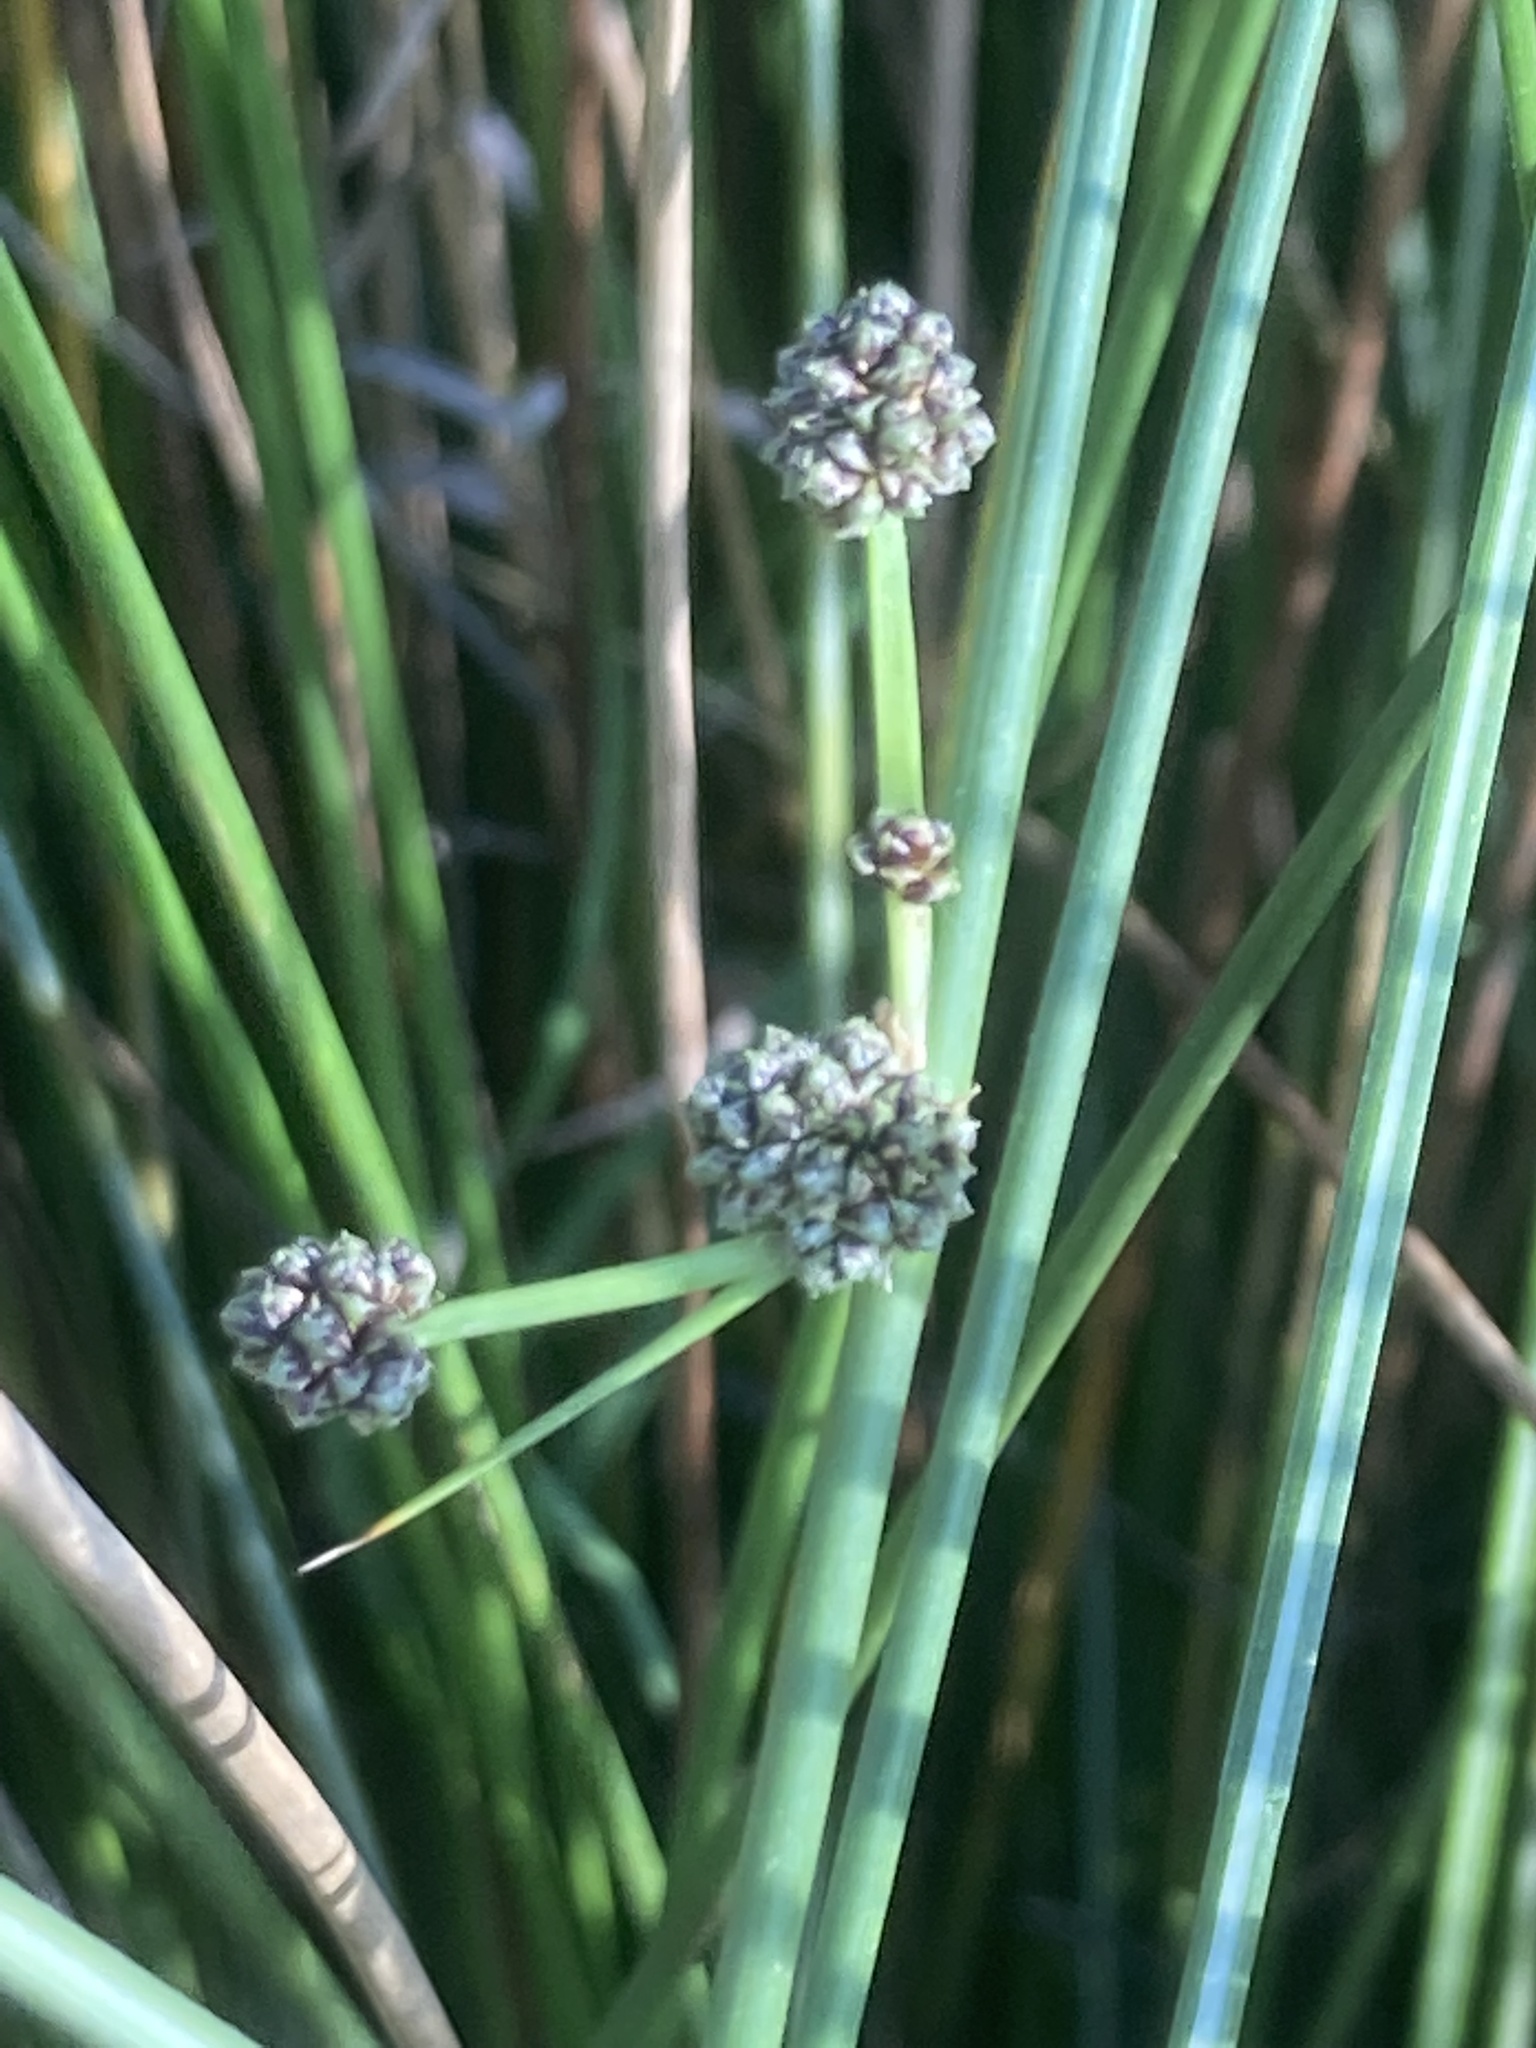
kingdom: Plantae
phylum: Tracheophyta
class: Liliopsida
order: Poales
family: Cyperaceae
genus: Scirpoides
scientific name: Scirpoides holoschoenus
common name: Round-headed club-rush
